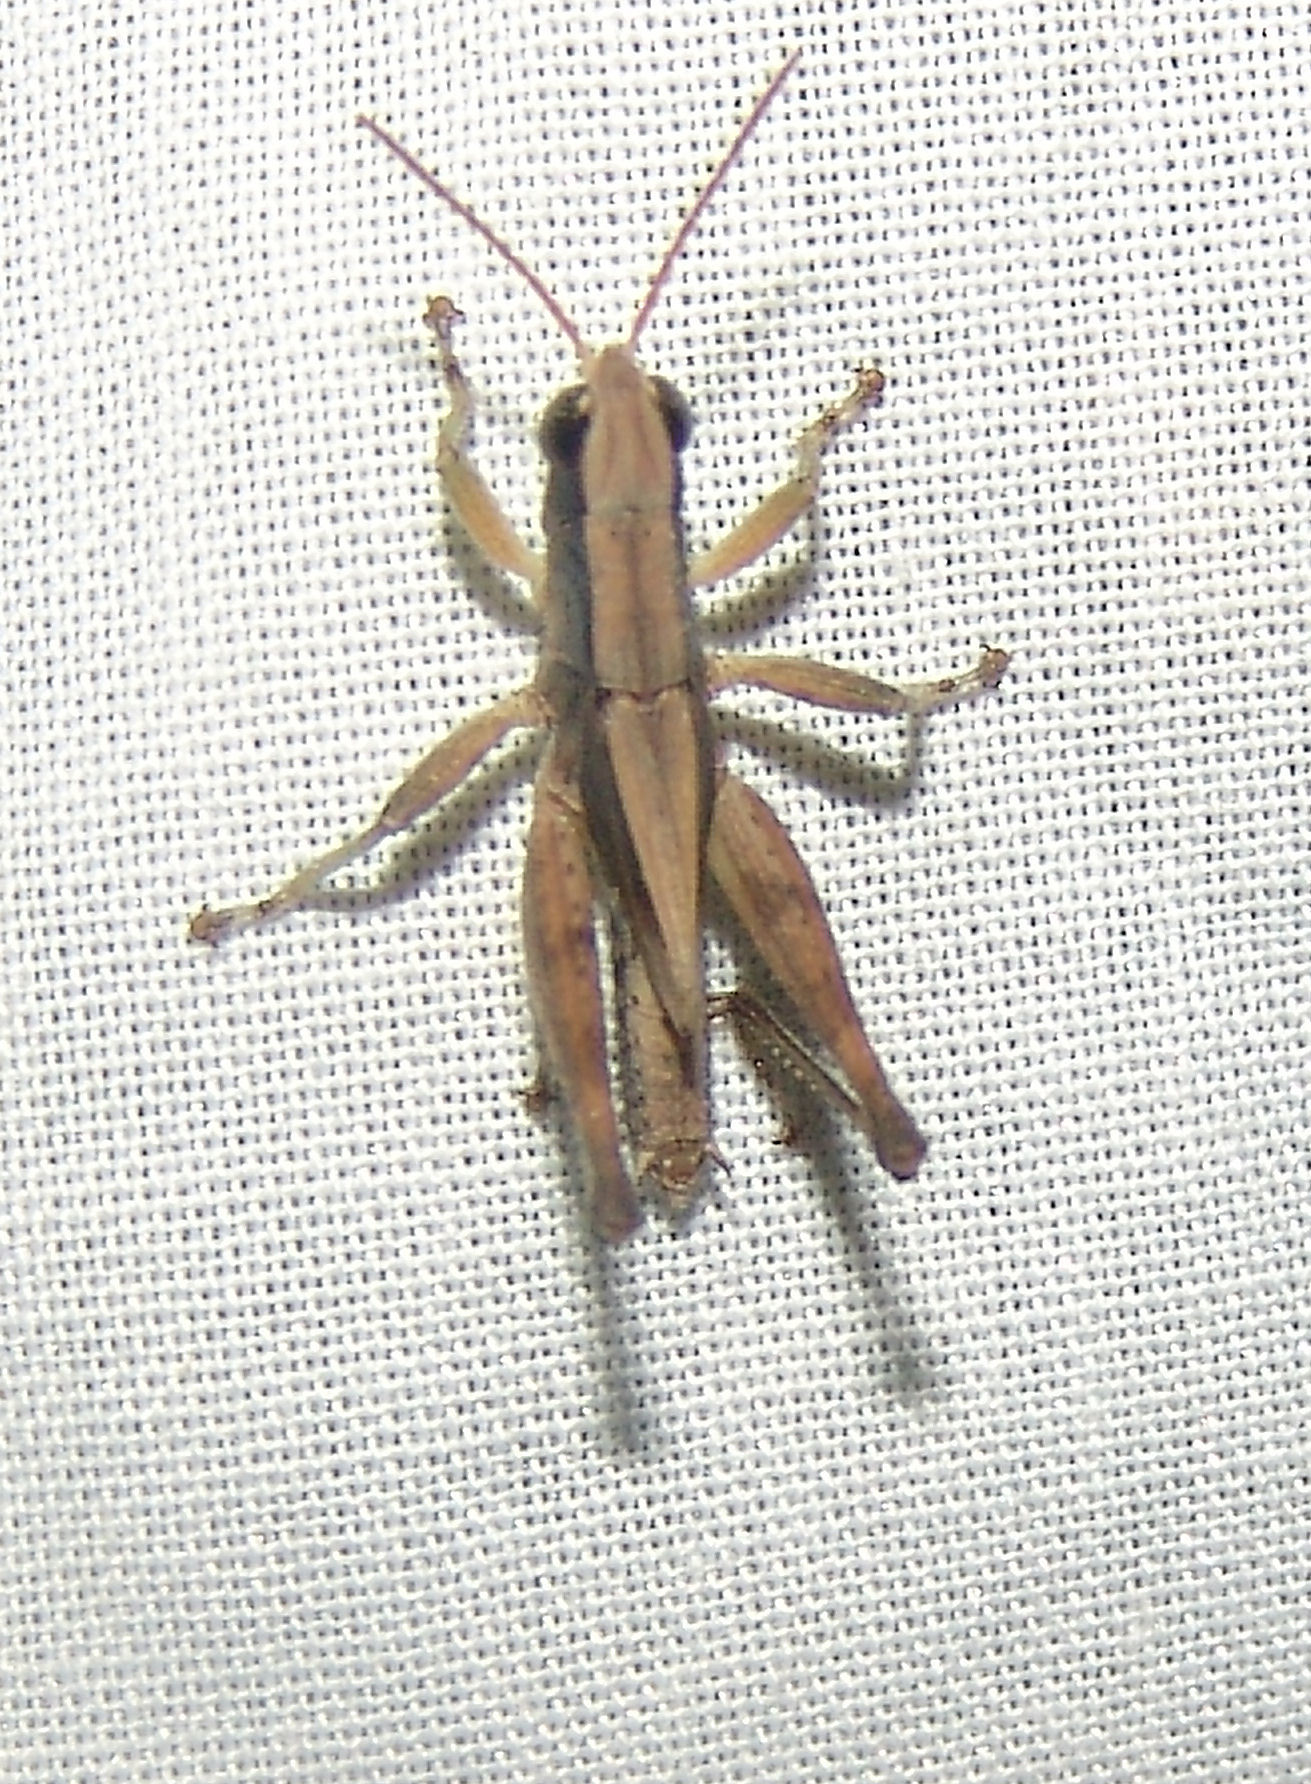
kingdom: Animalia
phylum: Arthropoda
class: Insecta
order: Orthoptera
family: Acrididae
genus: Dichromorpha
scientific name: Dichromorpha viridis
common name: Short-winged green grasshopper
